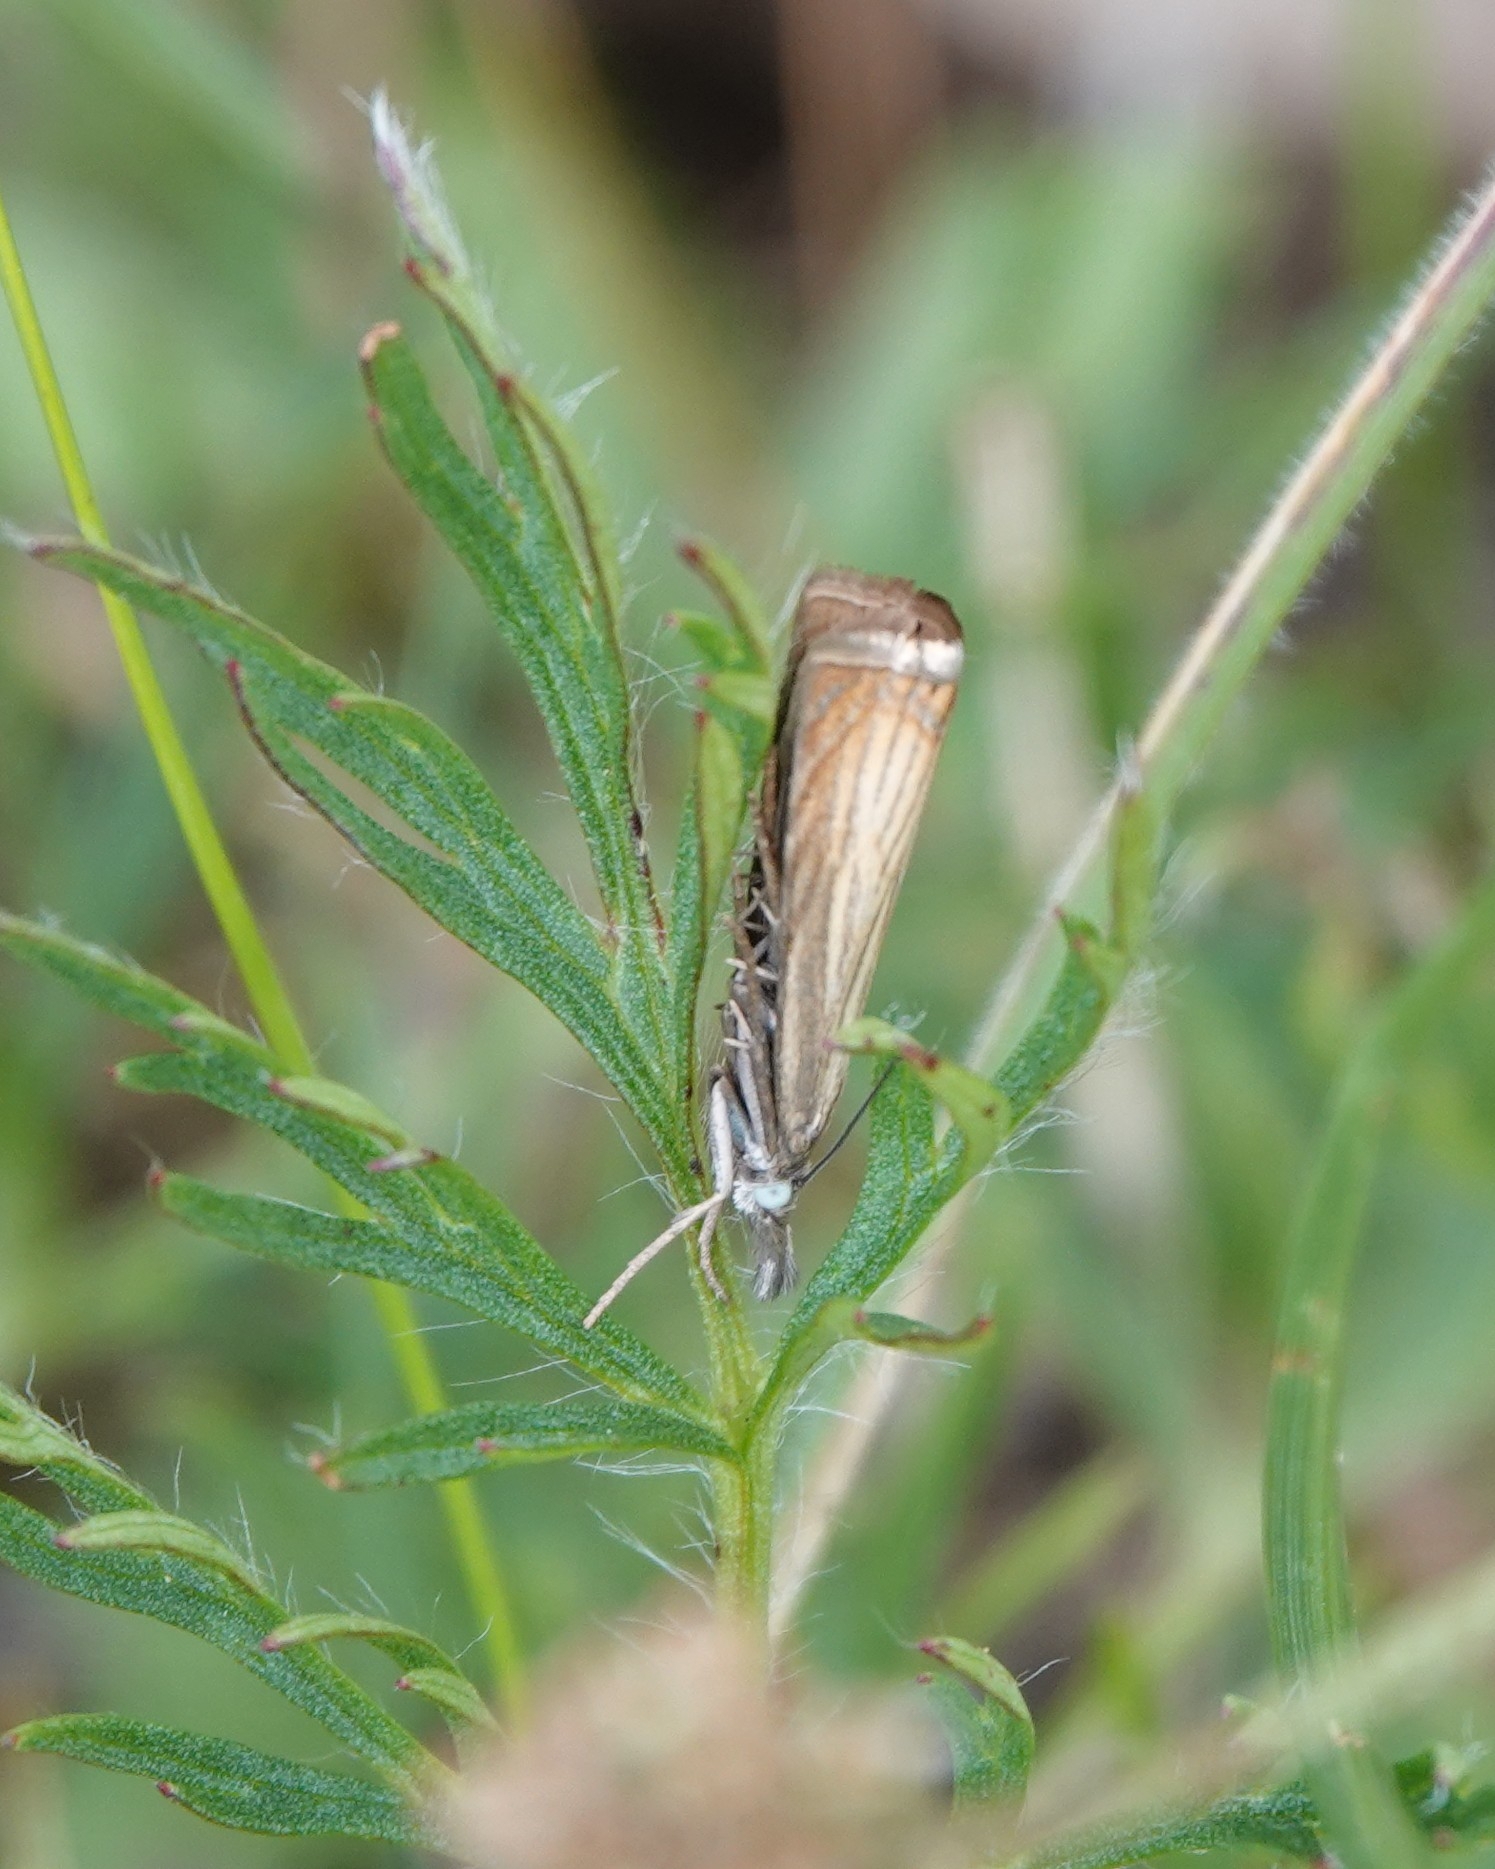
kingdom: Animalia
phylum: Arthropoda
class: Insecta
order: Lepidoptera
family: Crambidae
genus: Chrysoteuchia
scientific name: Chrysoteuchia culmella
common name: Garden grass-veneer
